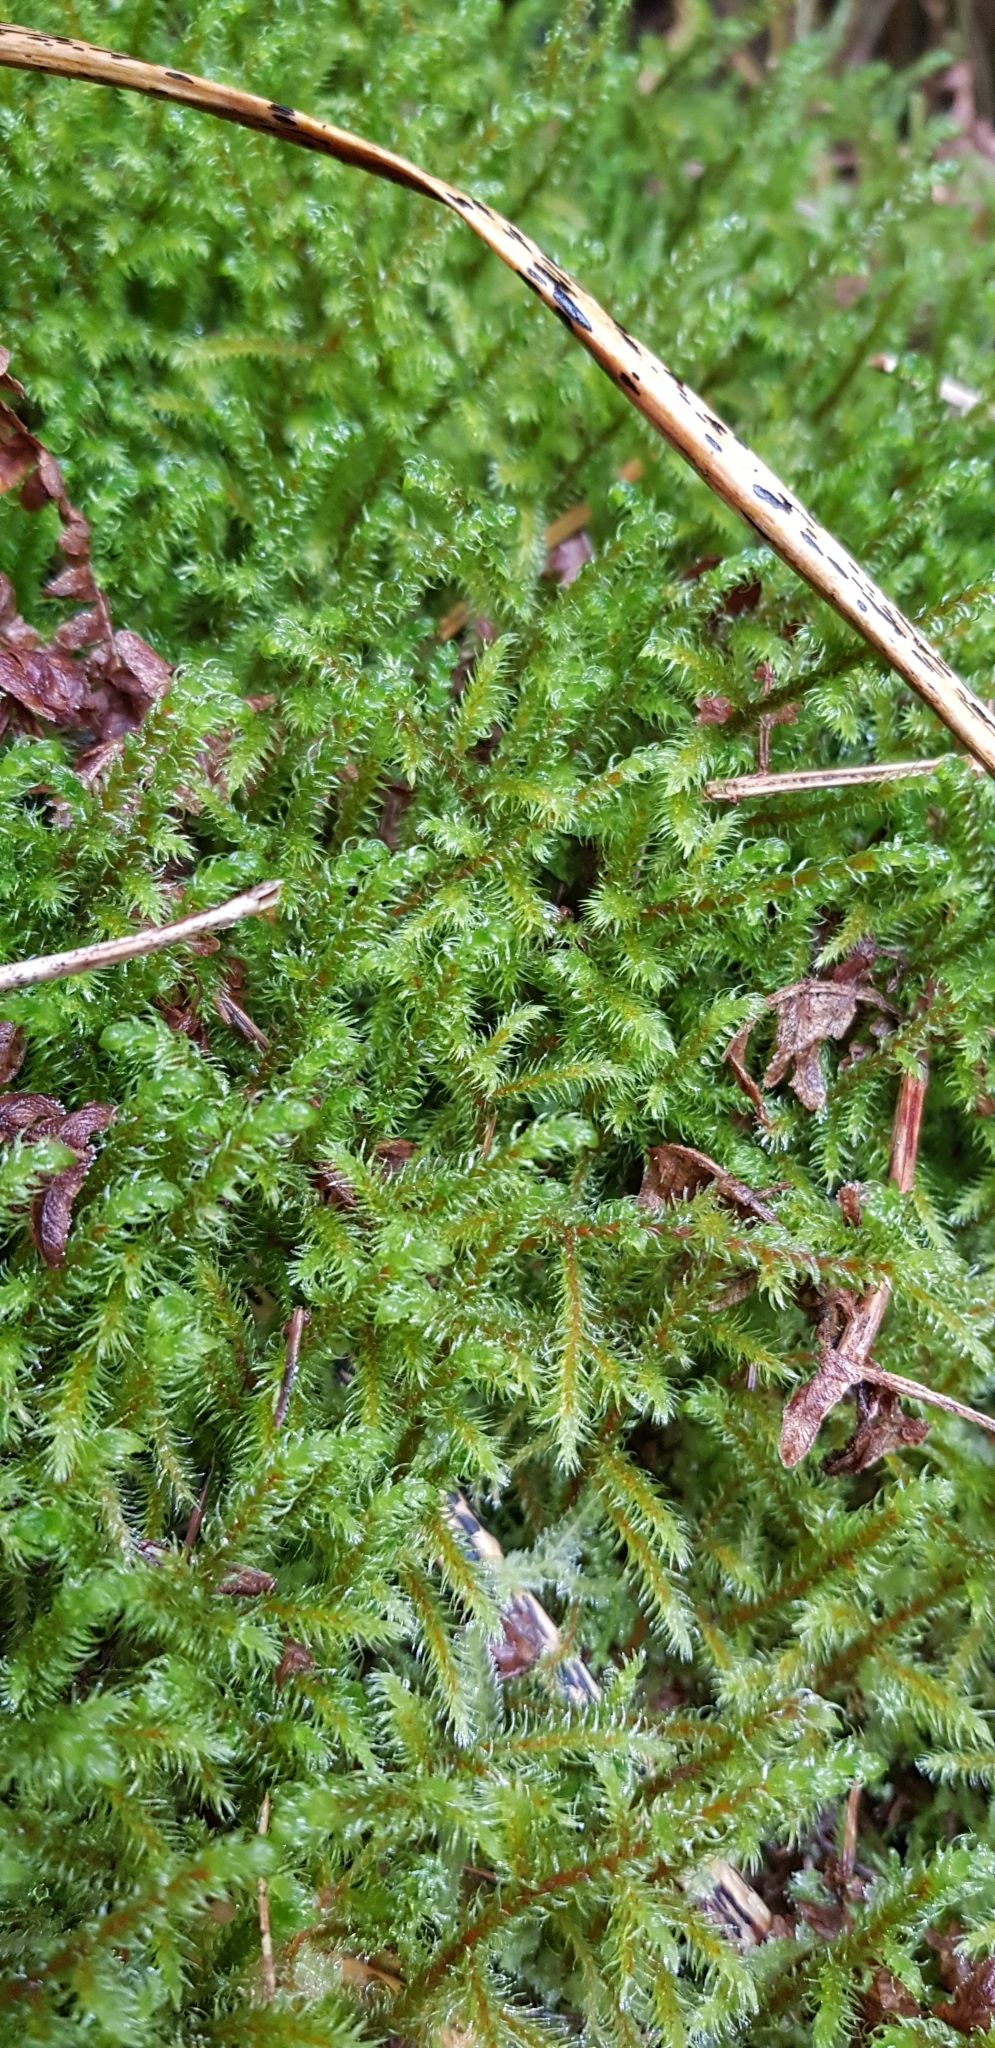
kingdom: Plantae
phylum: Bryophyta
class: Bryopsida
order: Hypnales
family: Hylocomiaceae
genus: Rhytidiadelphus
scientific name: Rhytidiadelphus loreus
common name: Lanky moss
